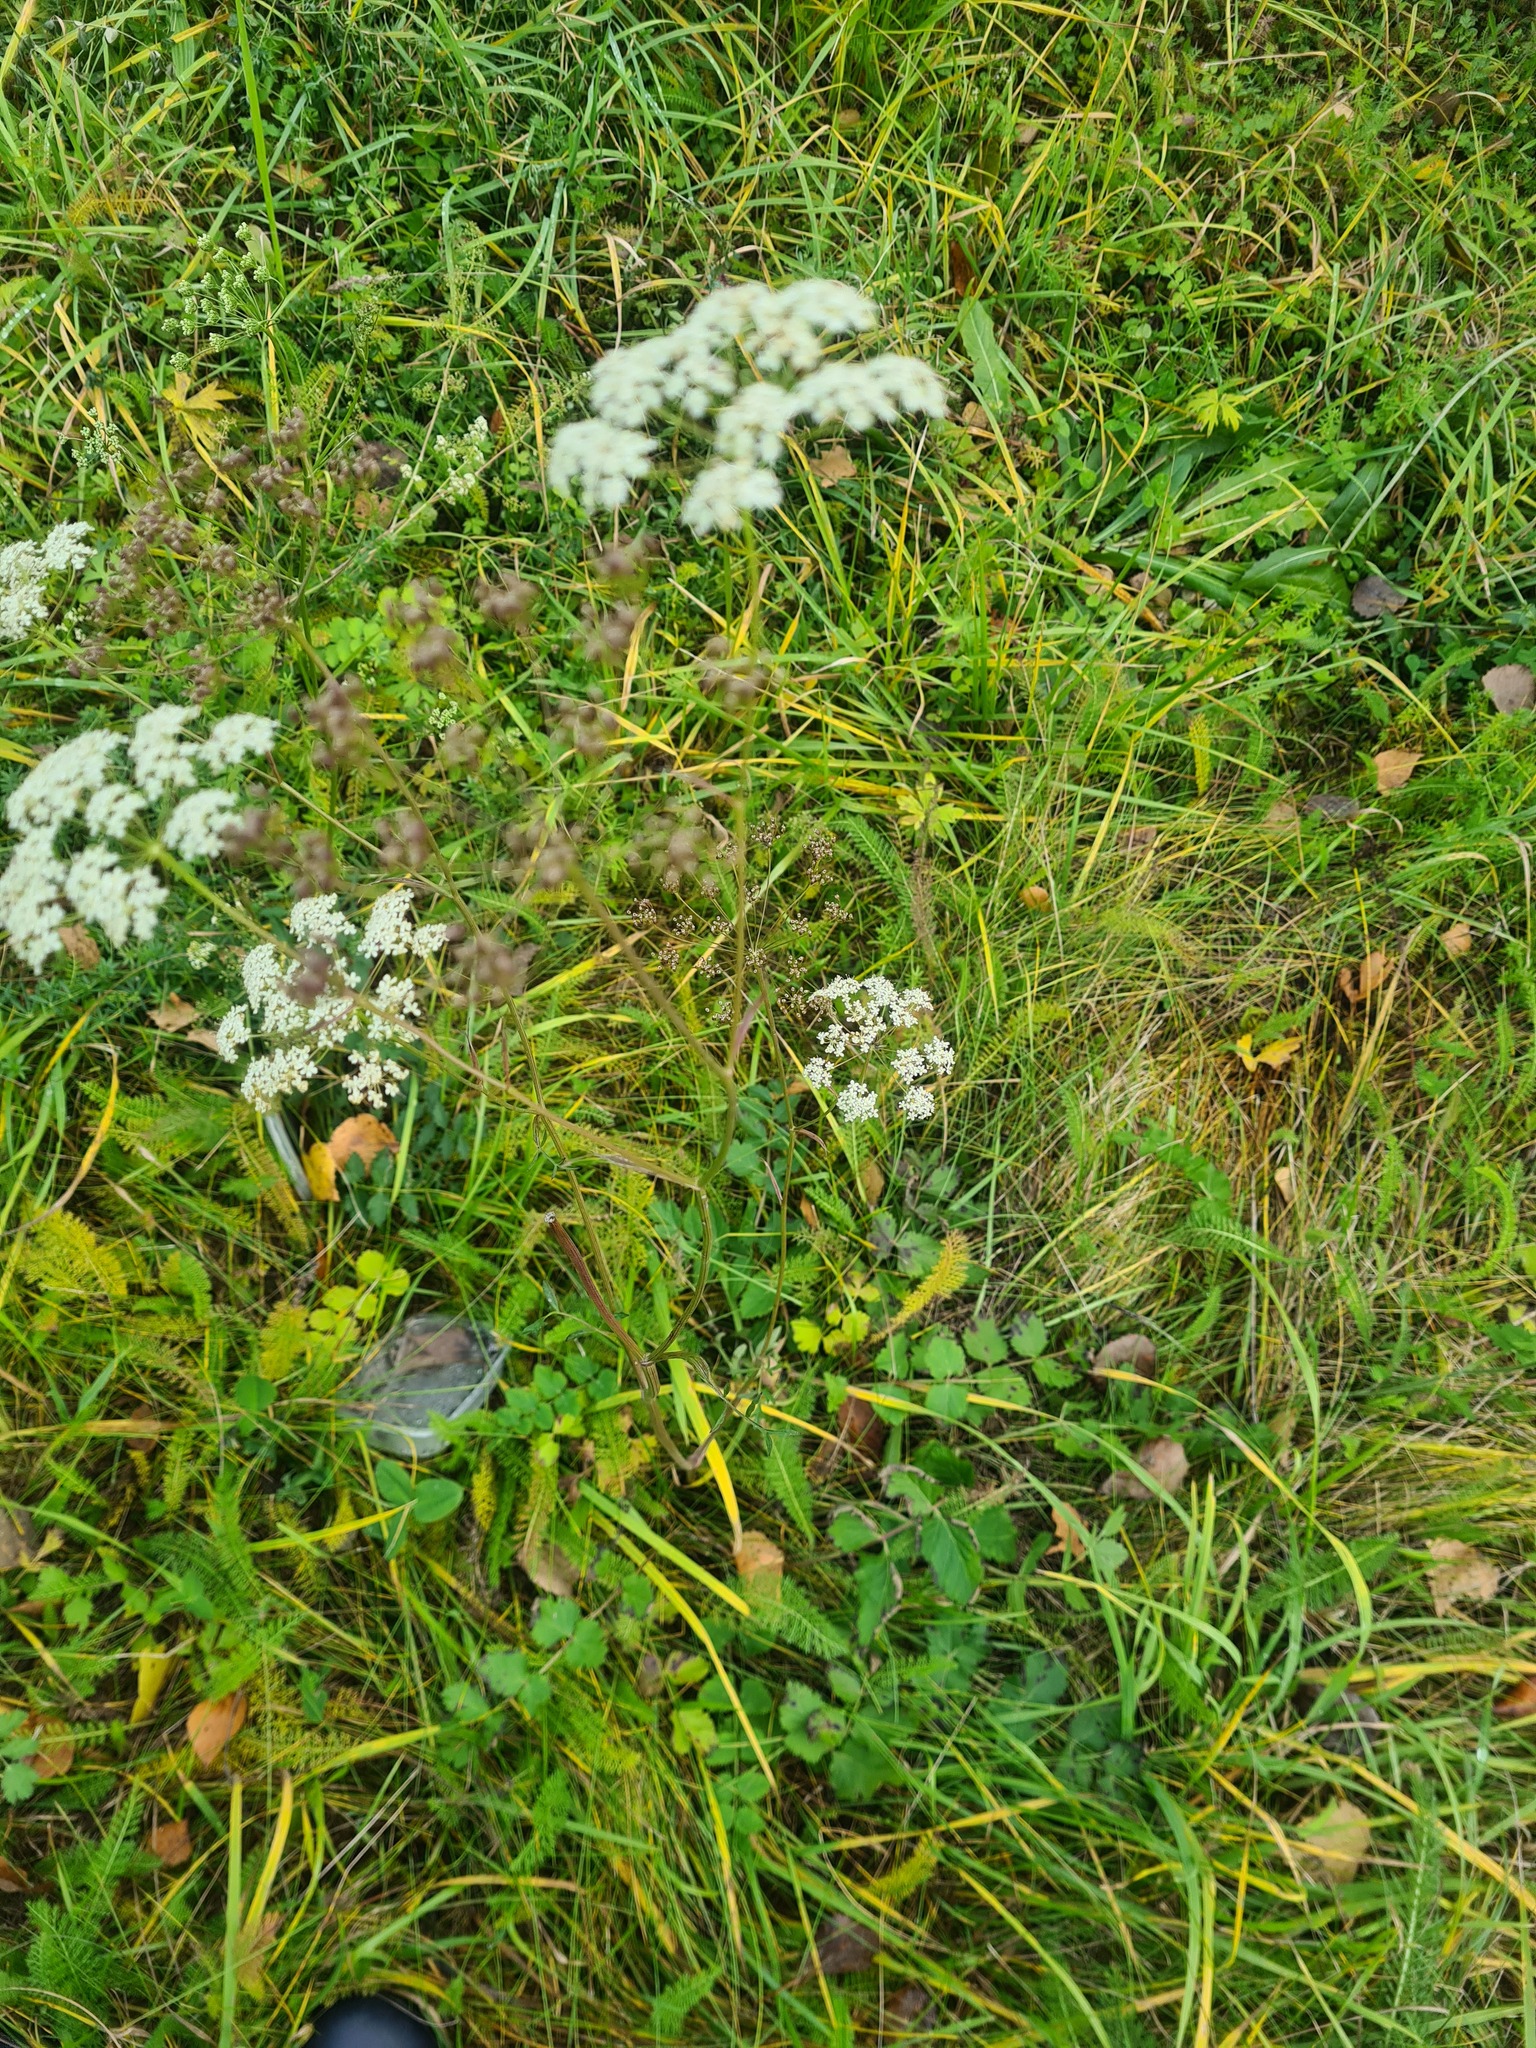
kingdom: Plantae
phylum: Tracheophyta
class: Magnoliopsida
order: Apiales
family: Apiaceae
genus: Pimpinella
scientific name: Pimpinella saxifraga
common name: Burnet-saxifrage
